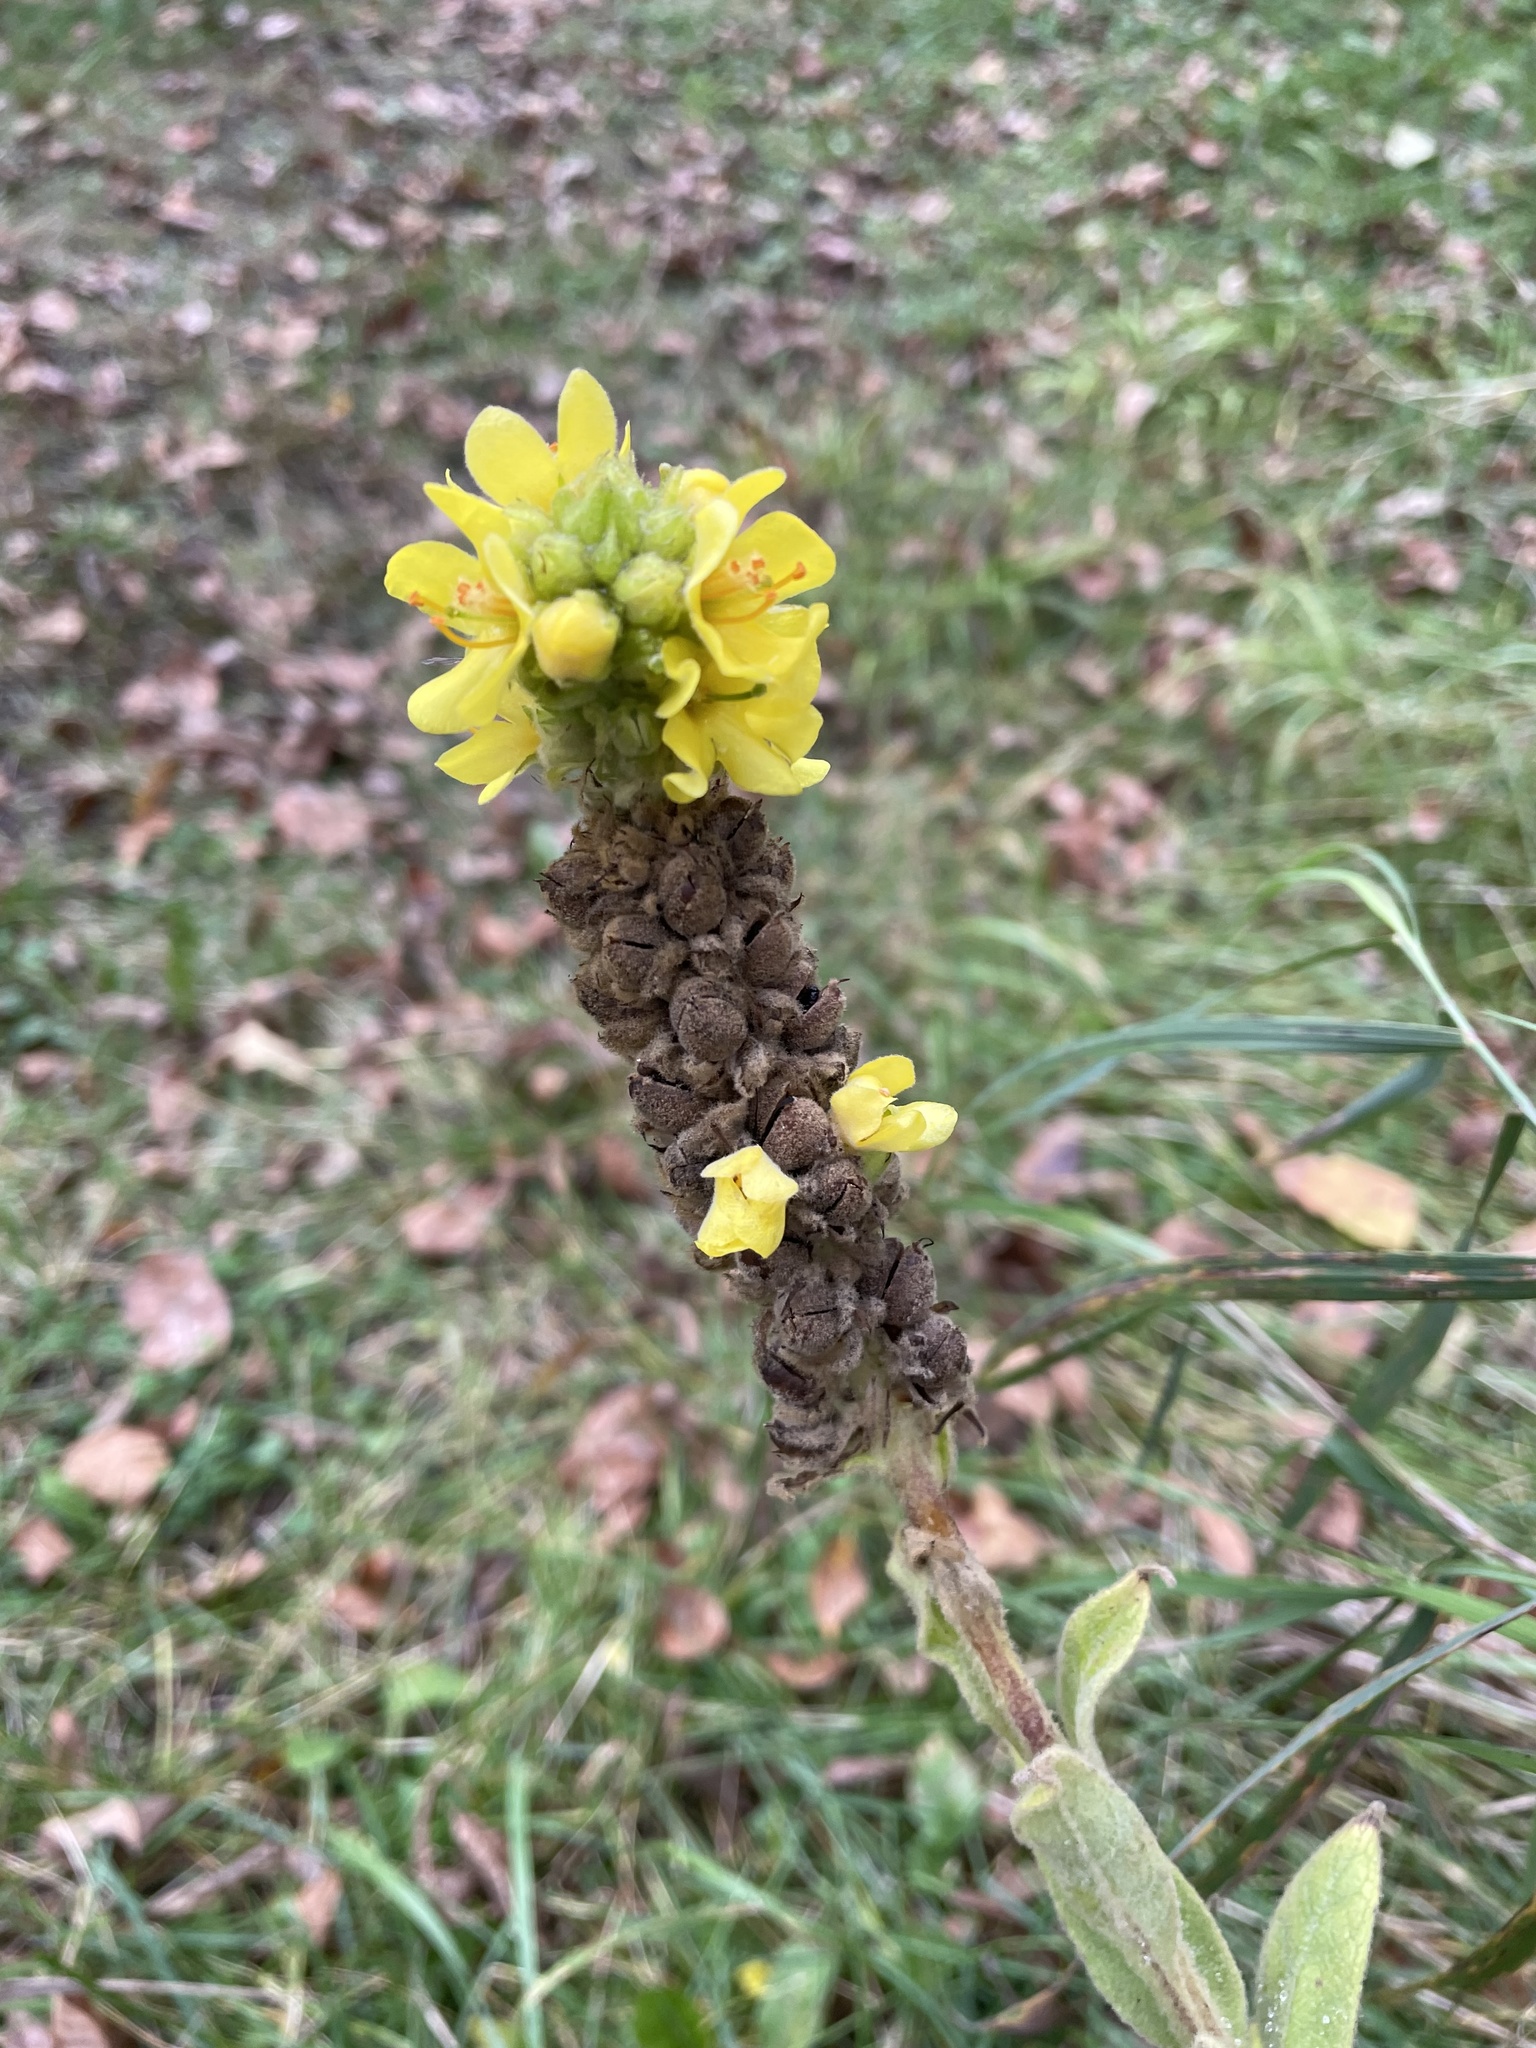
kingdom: Plantae
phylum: Tracheophyta
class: Magnoliopsida
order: Lamiales
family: Scrophulariaceae
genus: Verbascum
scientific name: Verbascum thapsus
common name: Common mullein
